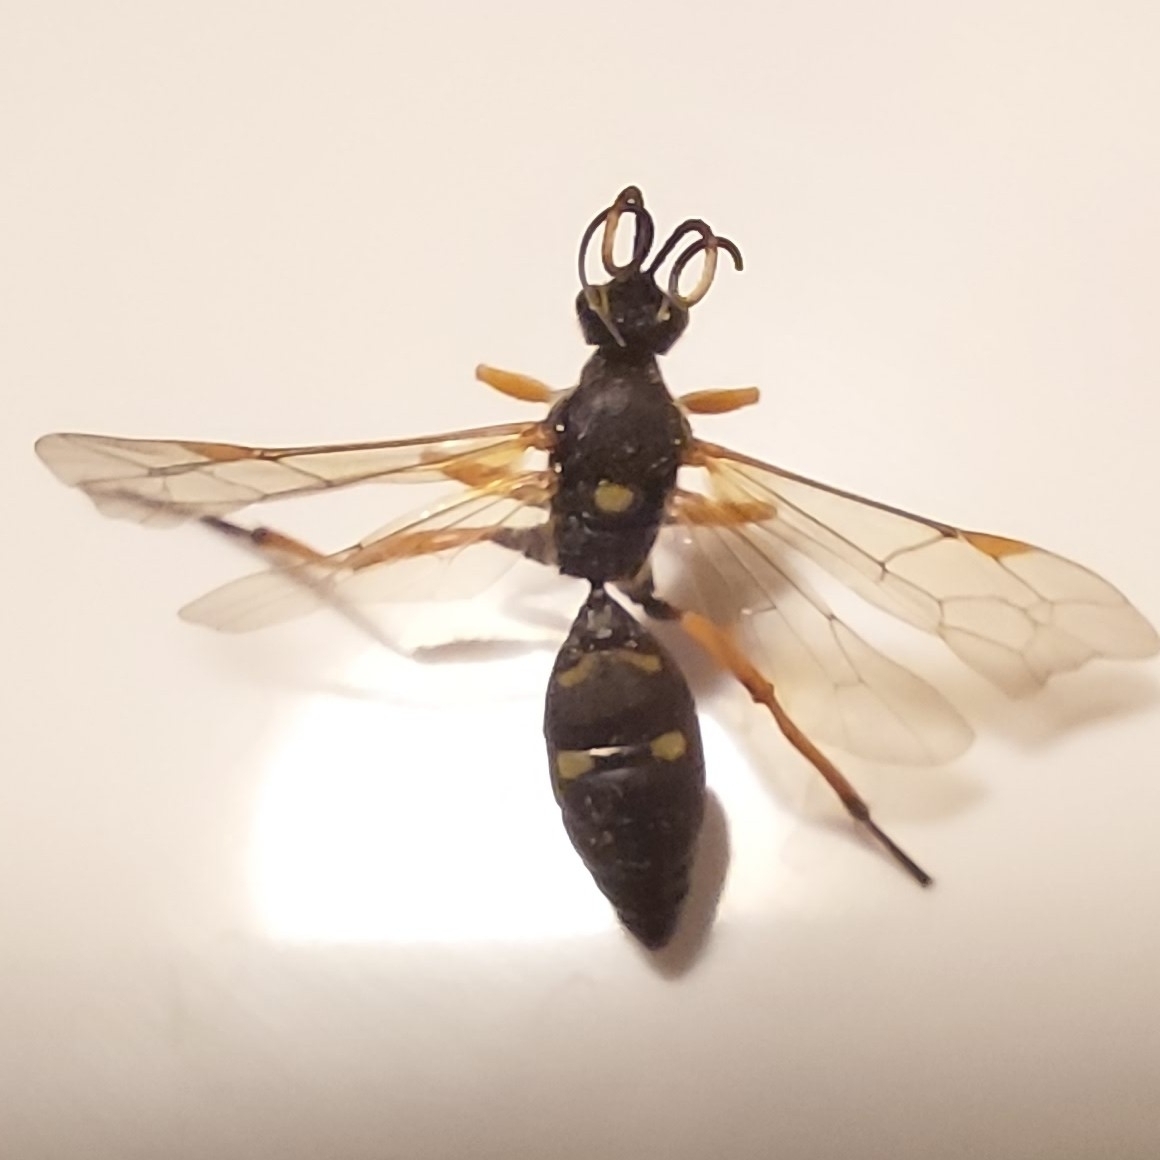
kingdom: Animalia
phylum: Arthropoda
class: Insecta
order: Hymenoptera
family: Ichneumonidae
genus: Diphyus
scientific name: Diphyus quadripunctorius
